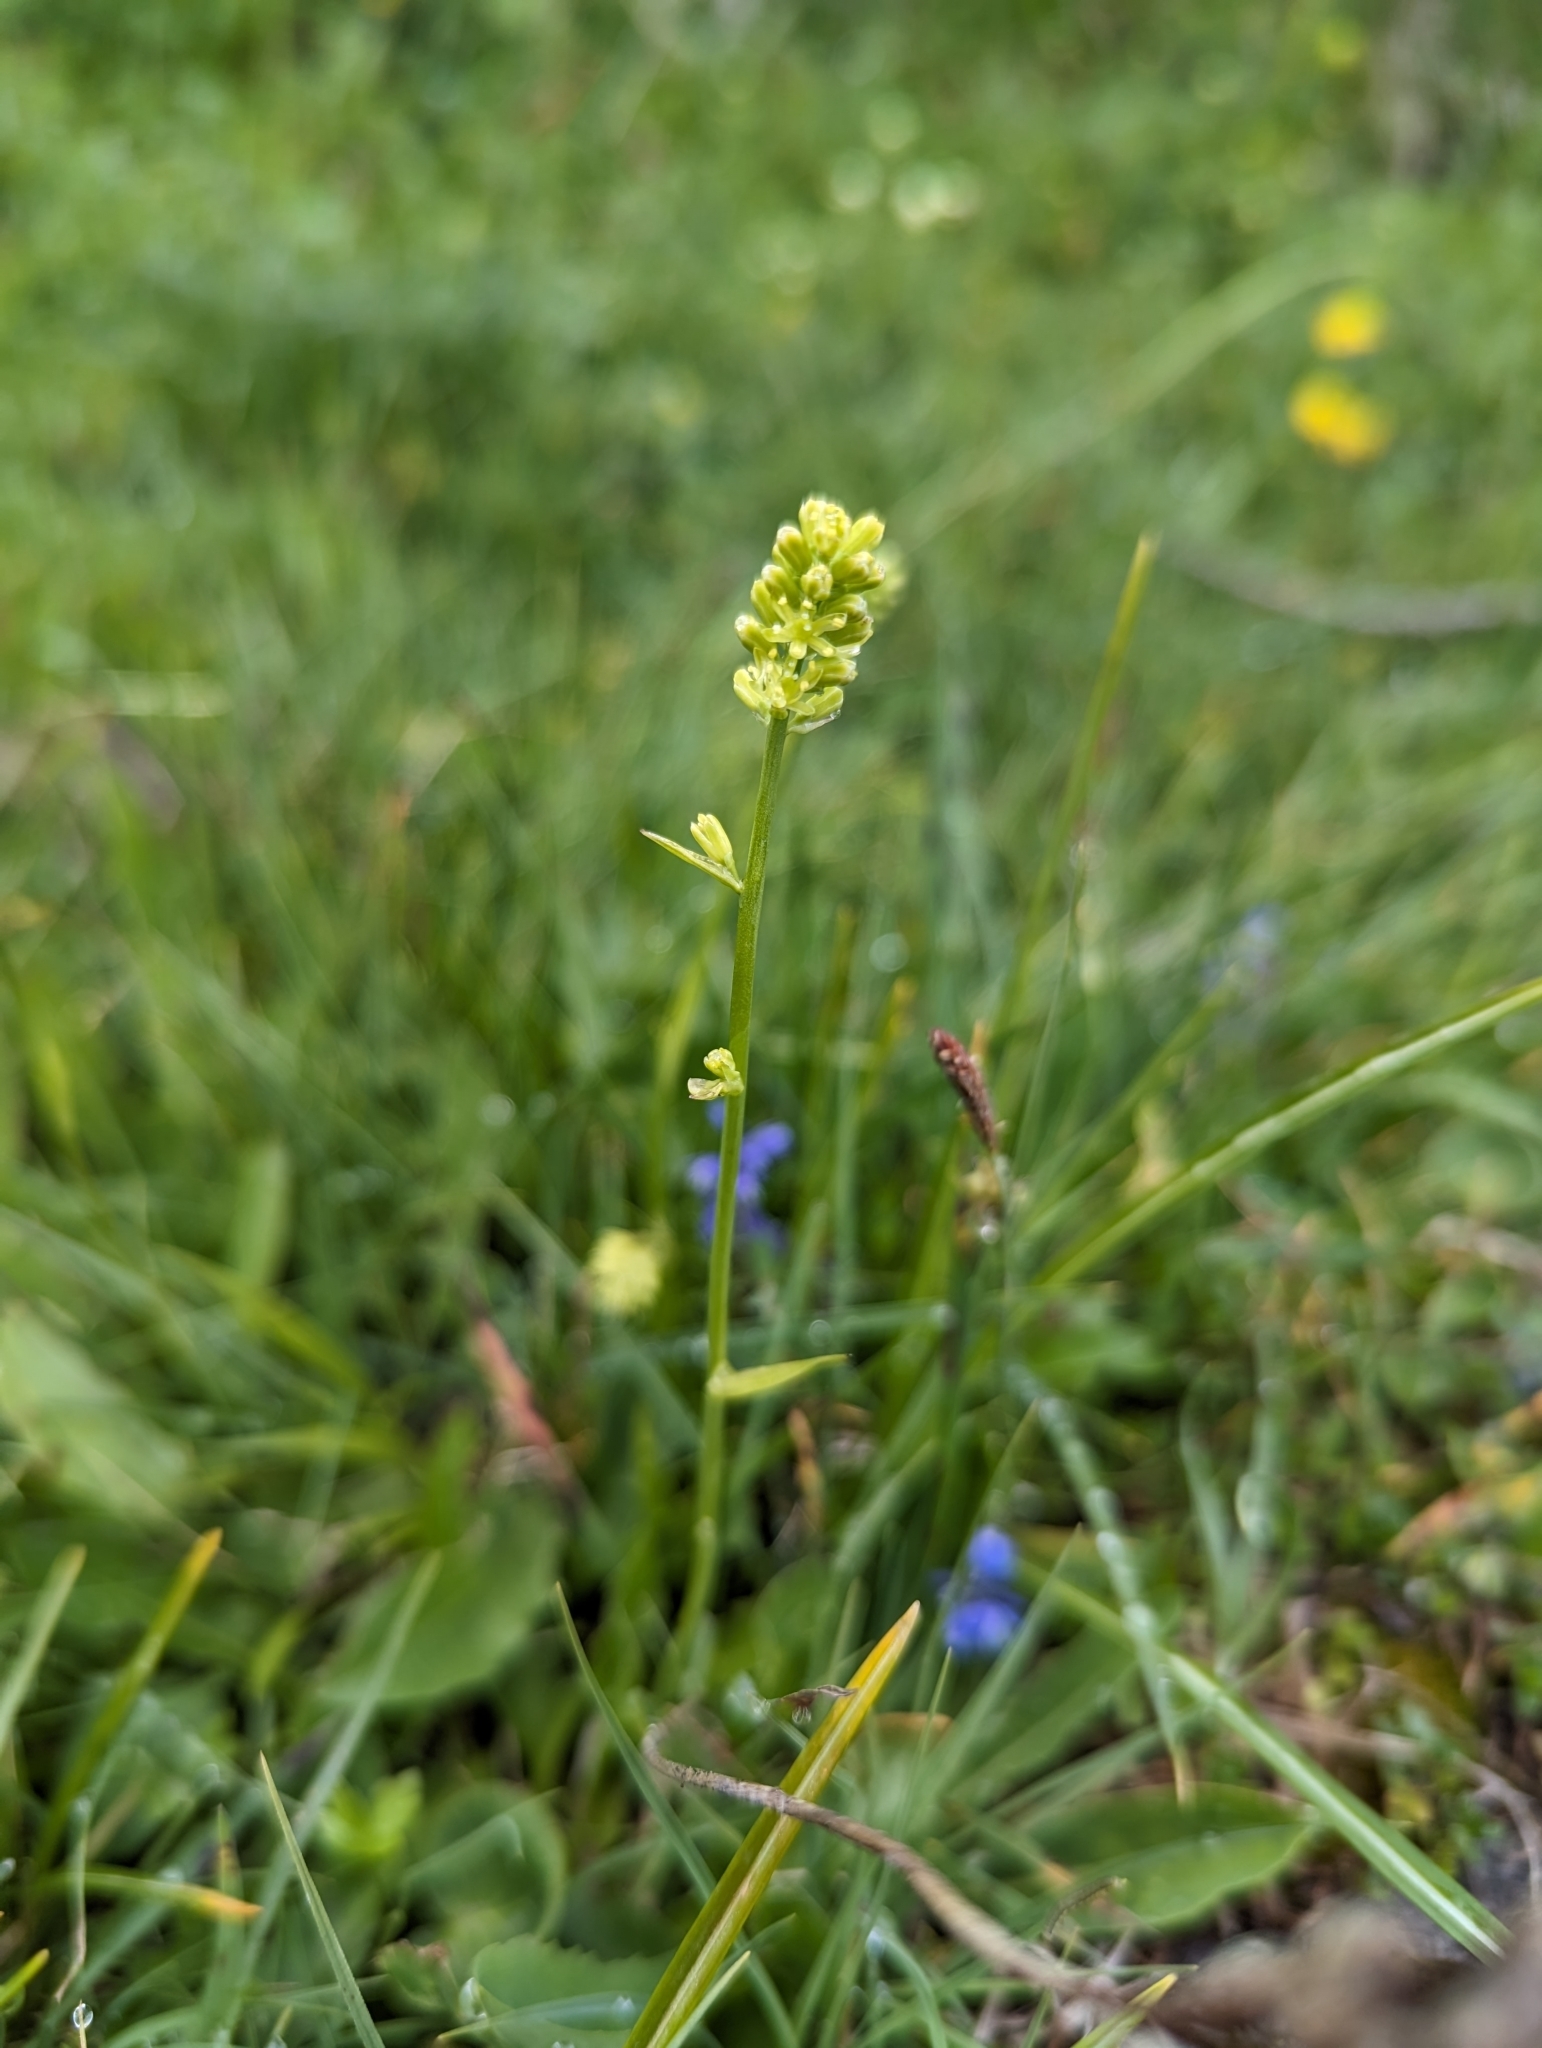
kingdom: Plantae
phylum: Tracheophyta
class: Liliopsida
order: Alismatales
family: Tofieldiaceae
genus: Tofieldia
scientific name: Tofieldia calyculata
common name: German-asphodel
